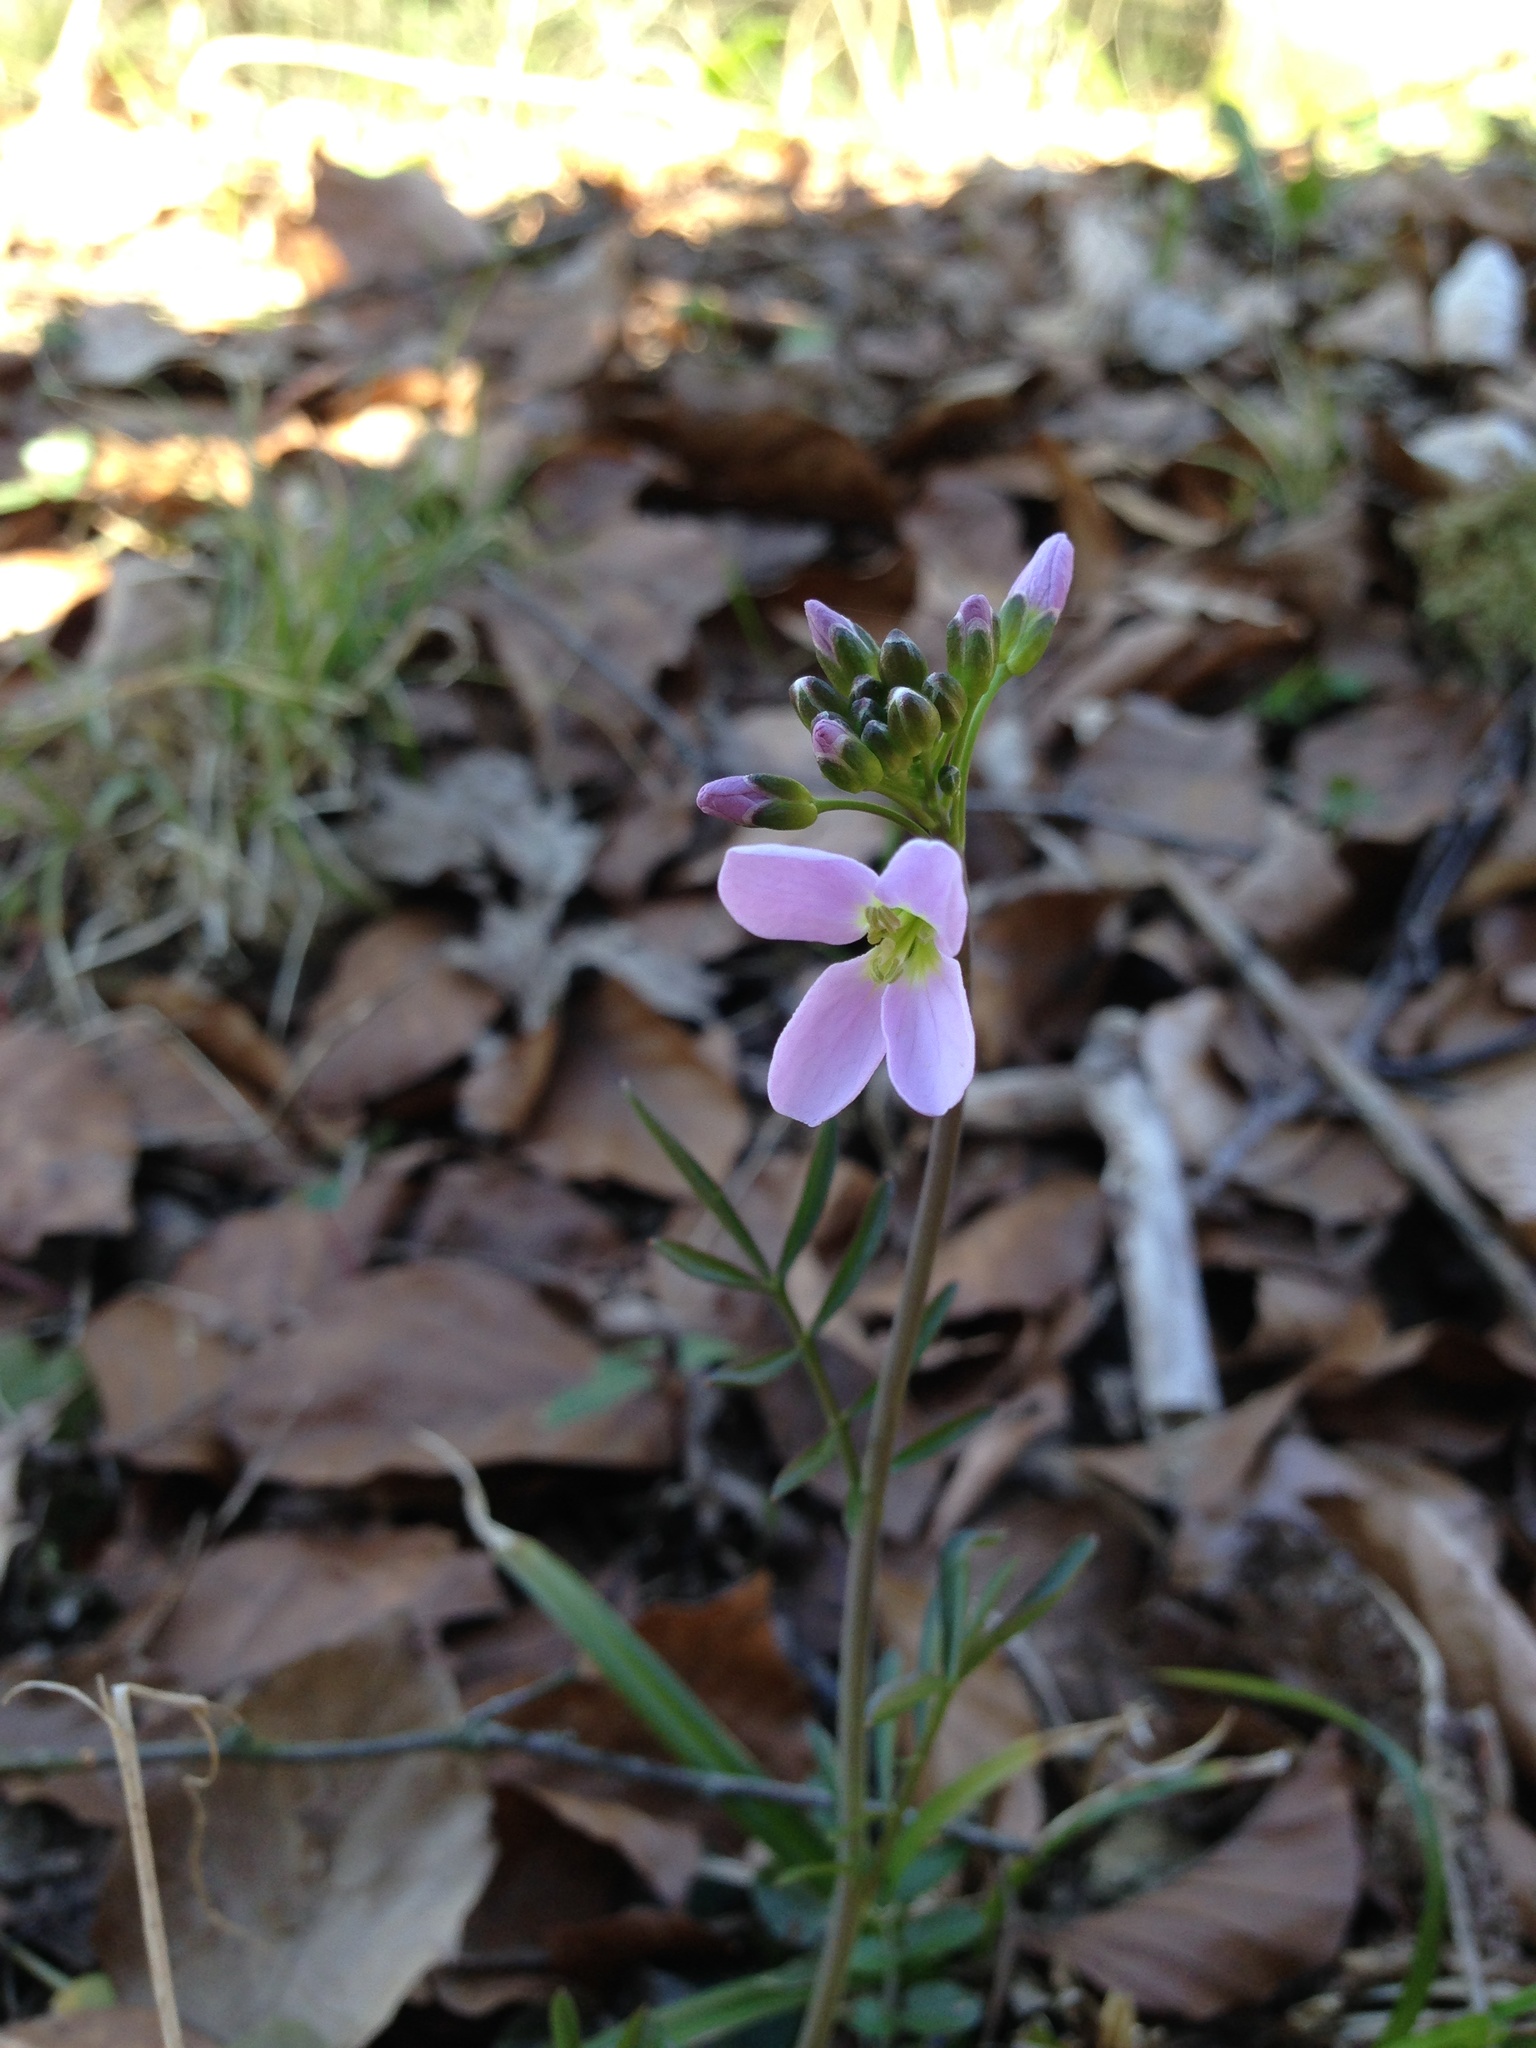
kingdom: Plantae
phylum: Tracheophyta
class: Magnoliopsida
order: Brassicales
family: Brassicaceae
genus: Cardamine
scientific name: Cardamine pratensis
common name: Cuckoo flower
